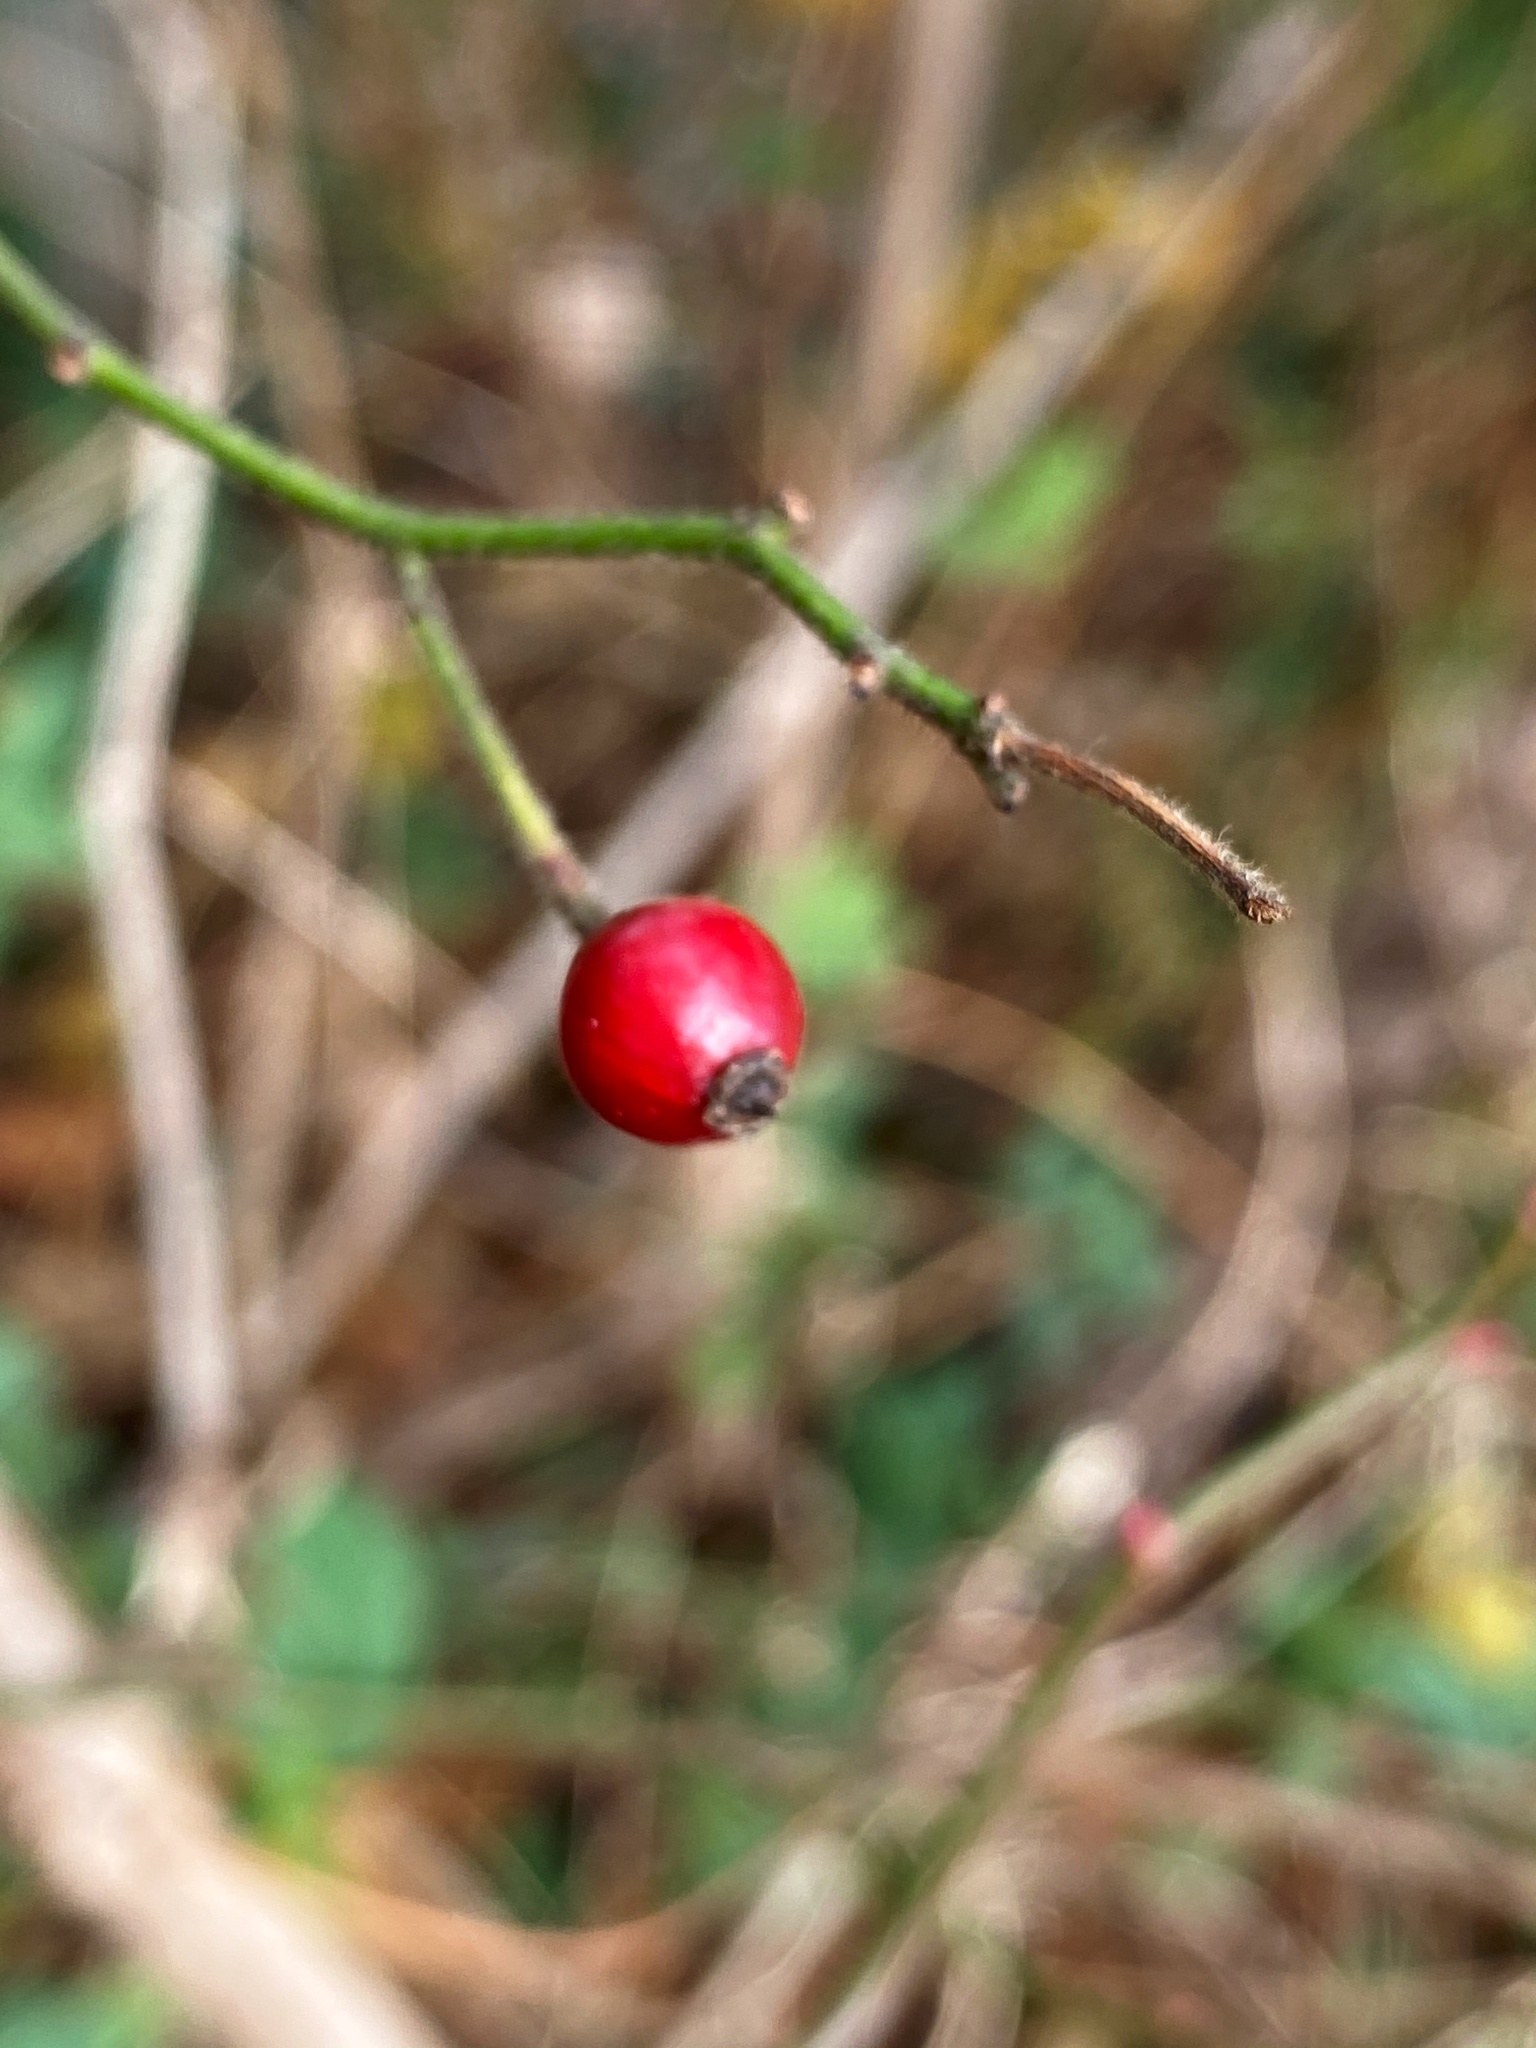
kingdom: Plantae
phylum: Tracheophyta
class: Magnoliopsida
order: Rosales
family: Rosaceae
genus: Rosa
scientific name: Rosa multiflora
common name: Multiflora rose
